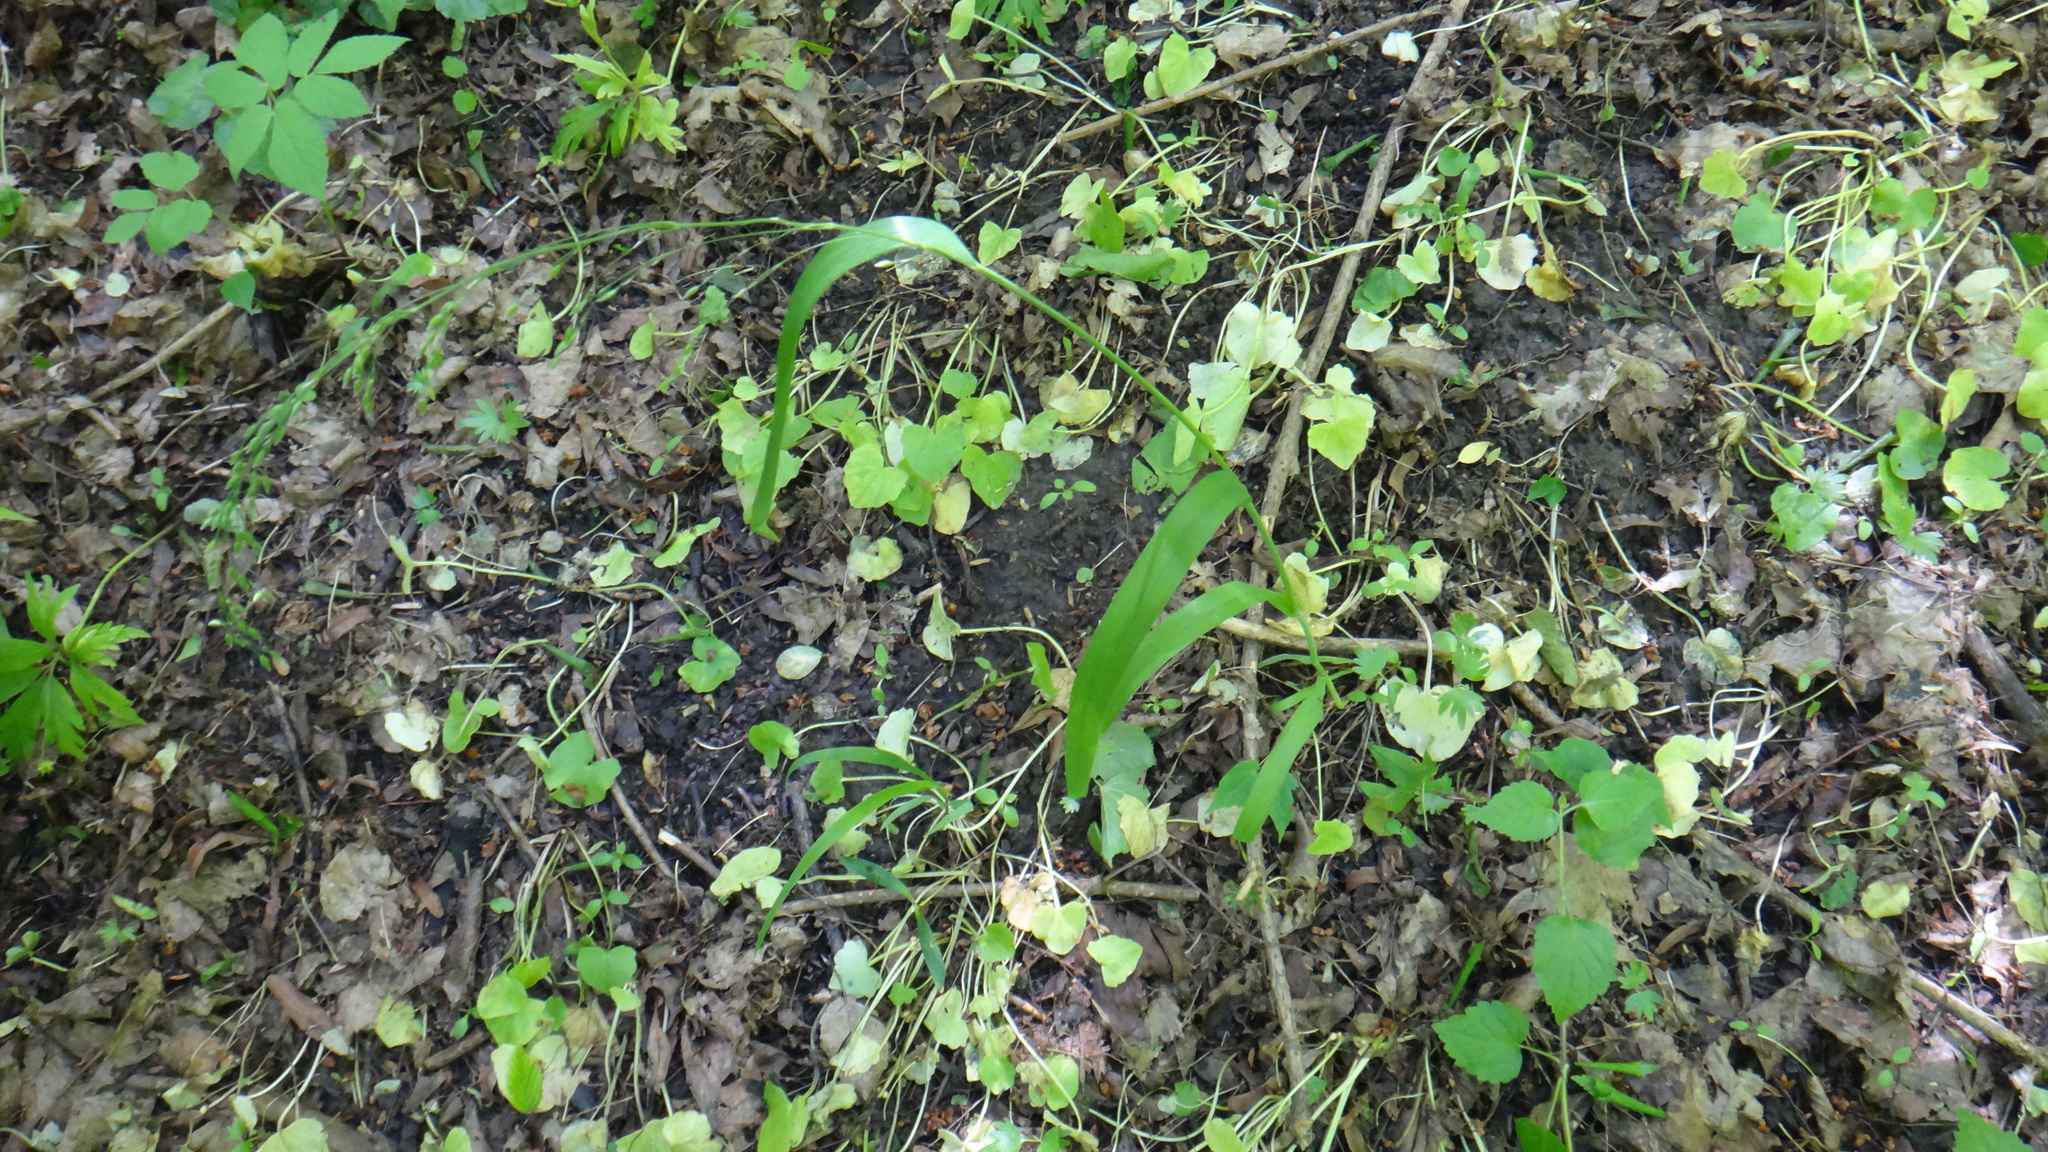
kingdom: Plantae
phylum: Tracheophyta
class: Liliopsida
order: Poales
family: Poaceae
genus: Milium
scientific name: Milium effusum
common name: Wood millet
